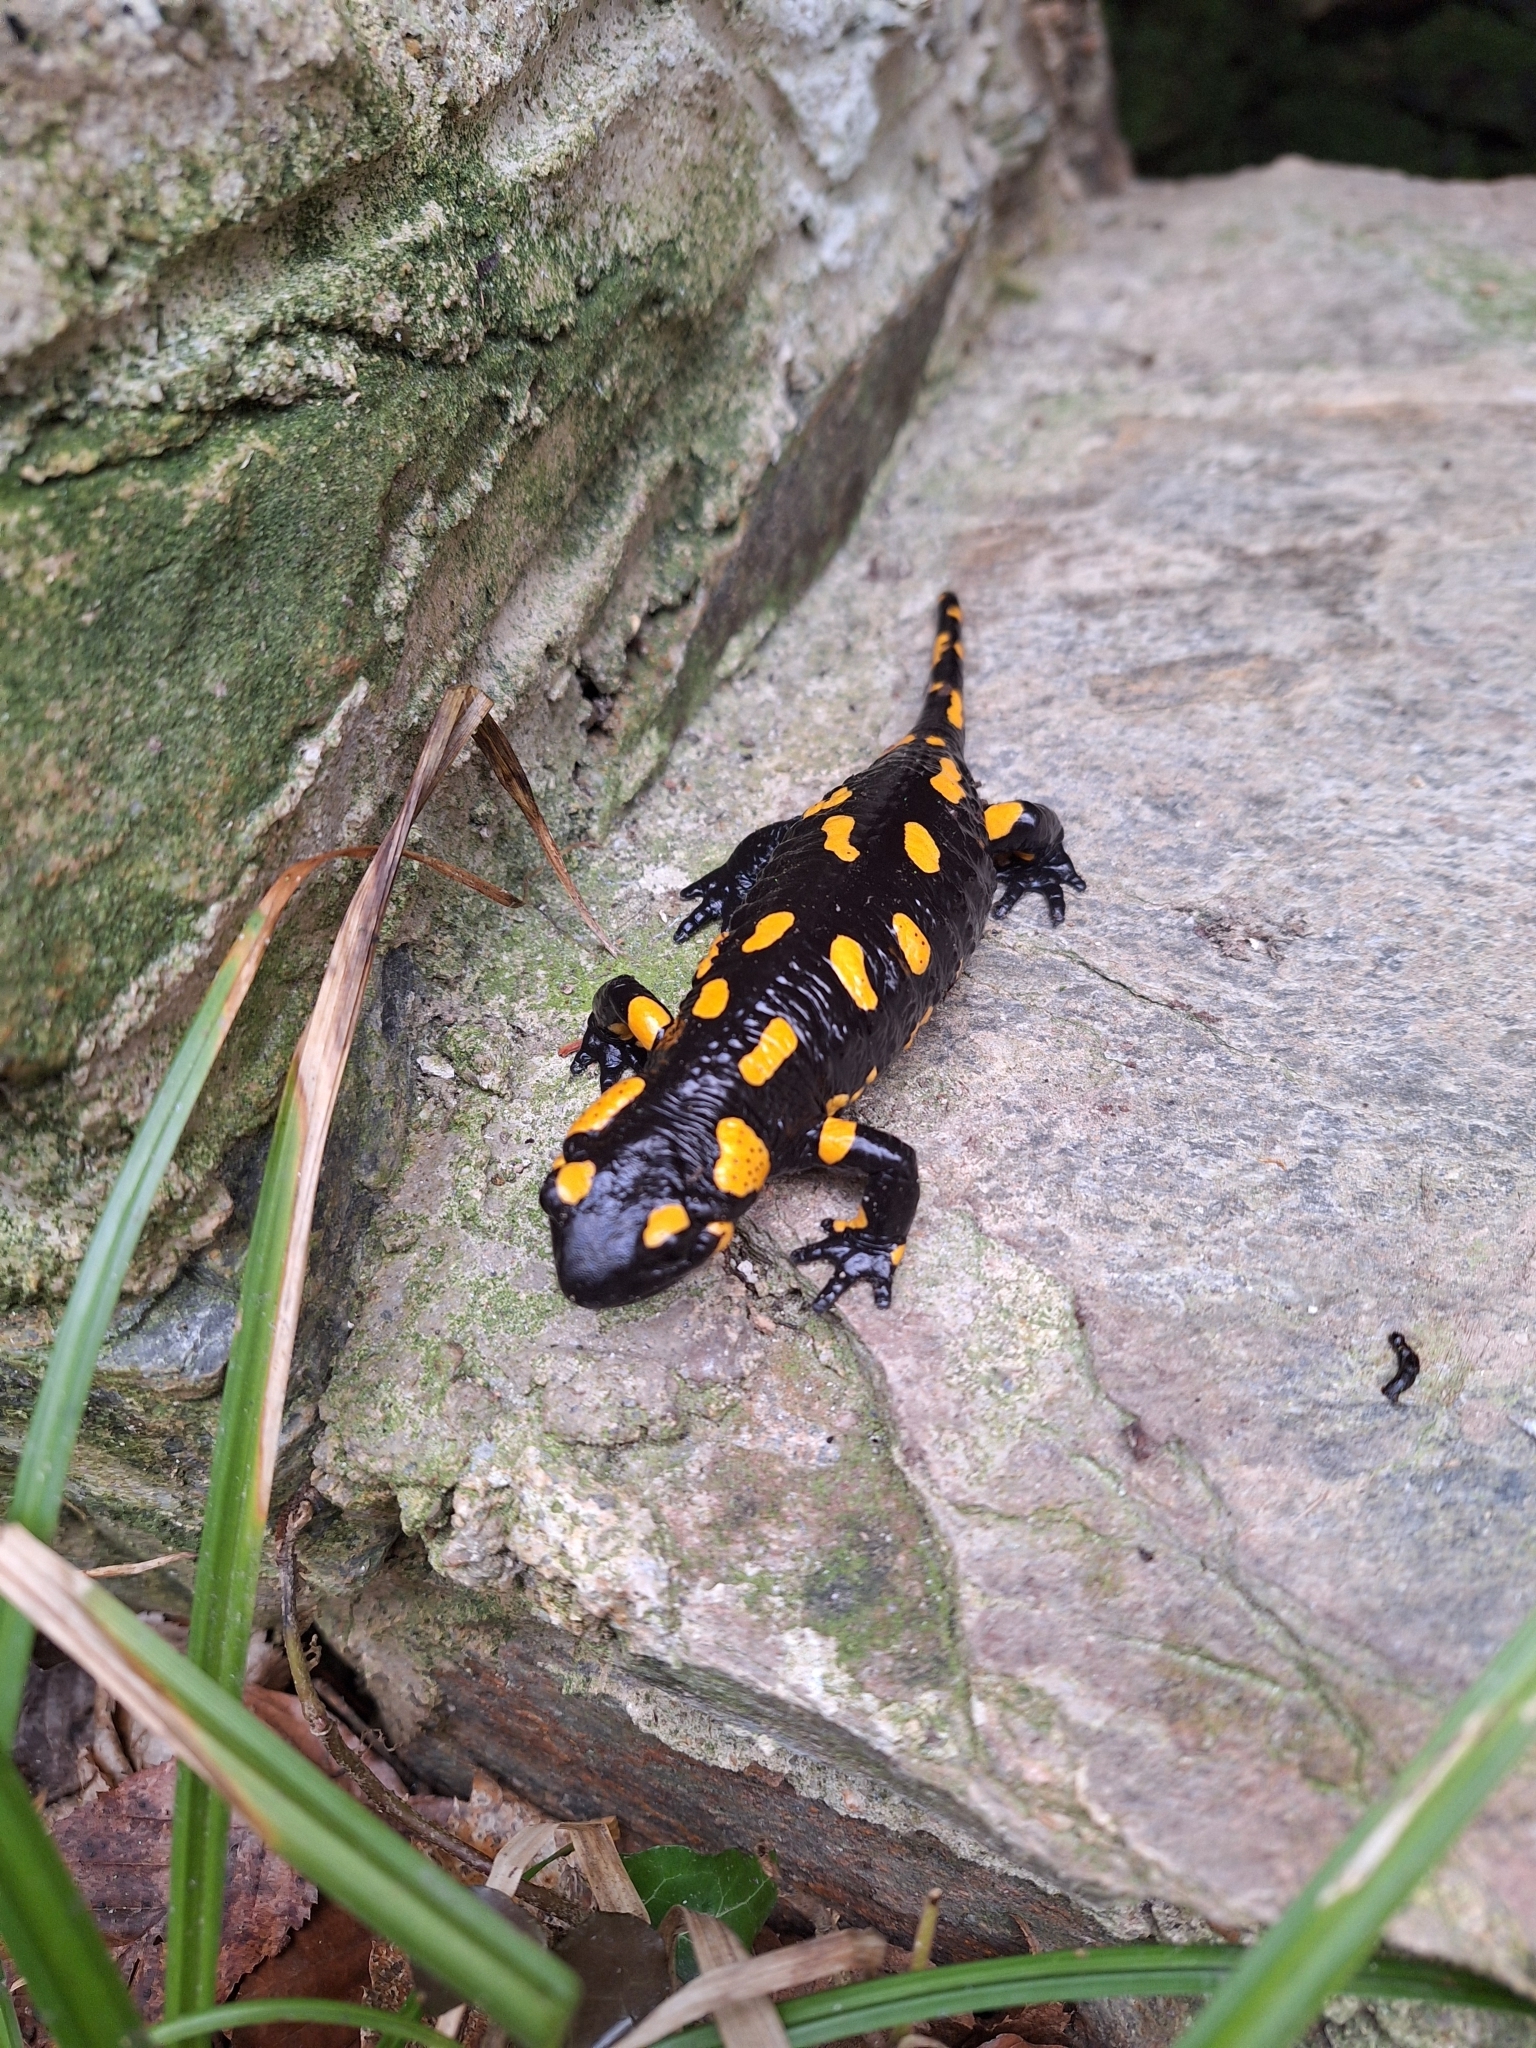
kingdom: Animalia
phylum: Chordata
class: Amphibia
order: Caudata
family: Salamandridae
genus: Salamandra
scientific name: Salamandra salamandra
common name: Fire salamander
